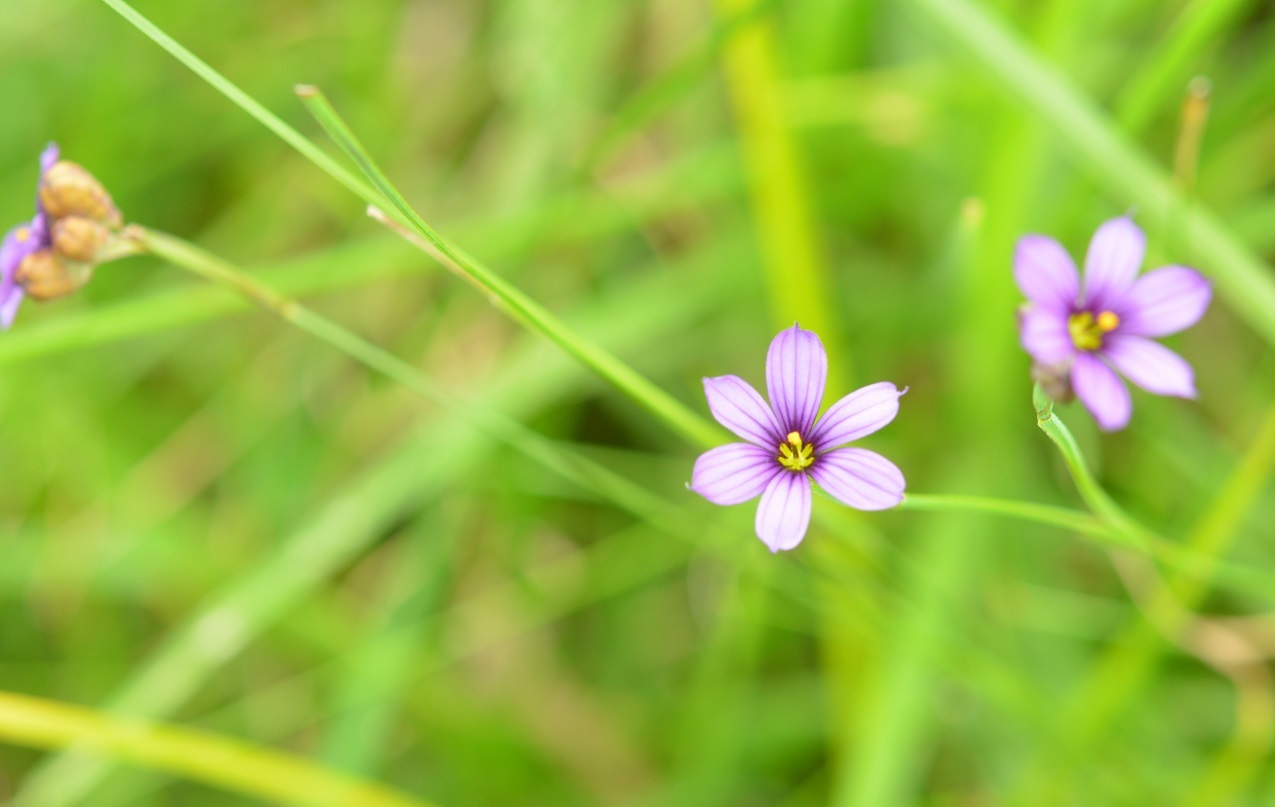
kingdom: Plantae
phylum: Tracheophyta
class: Liliopsida
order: Asparagales
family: Iridaceae
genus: Sisyrinchium
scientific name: Sisyrinchium scabrum
